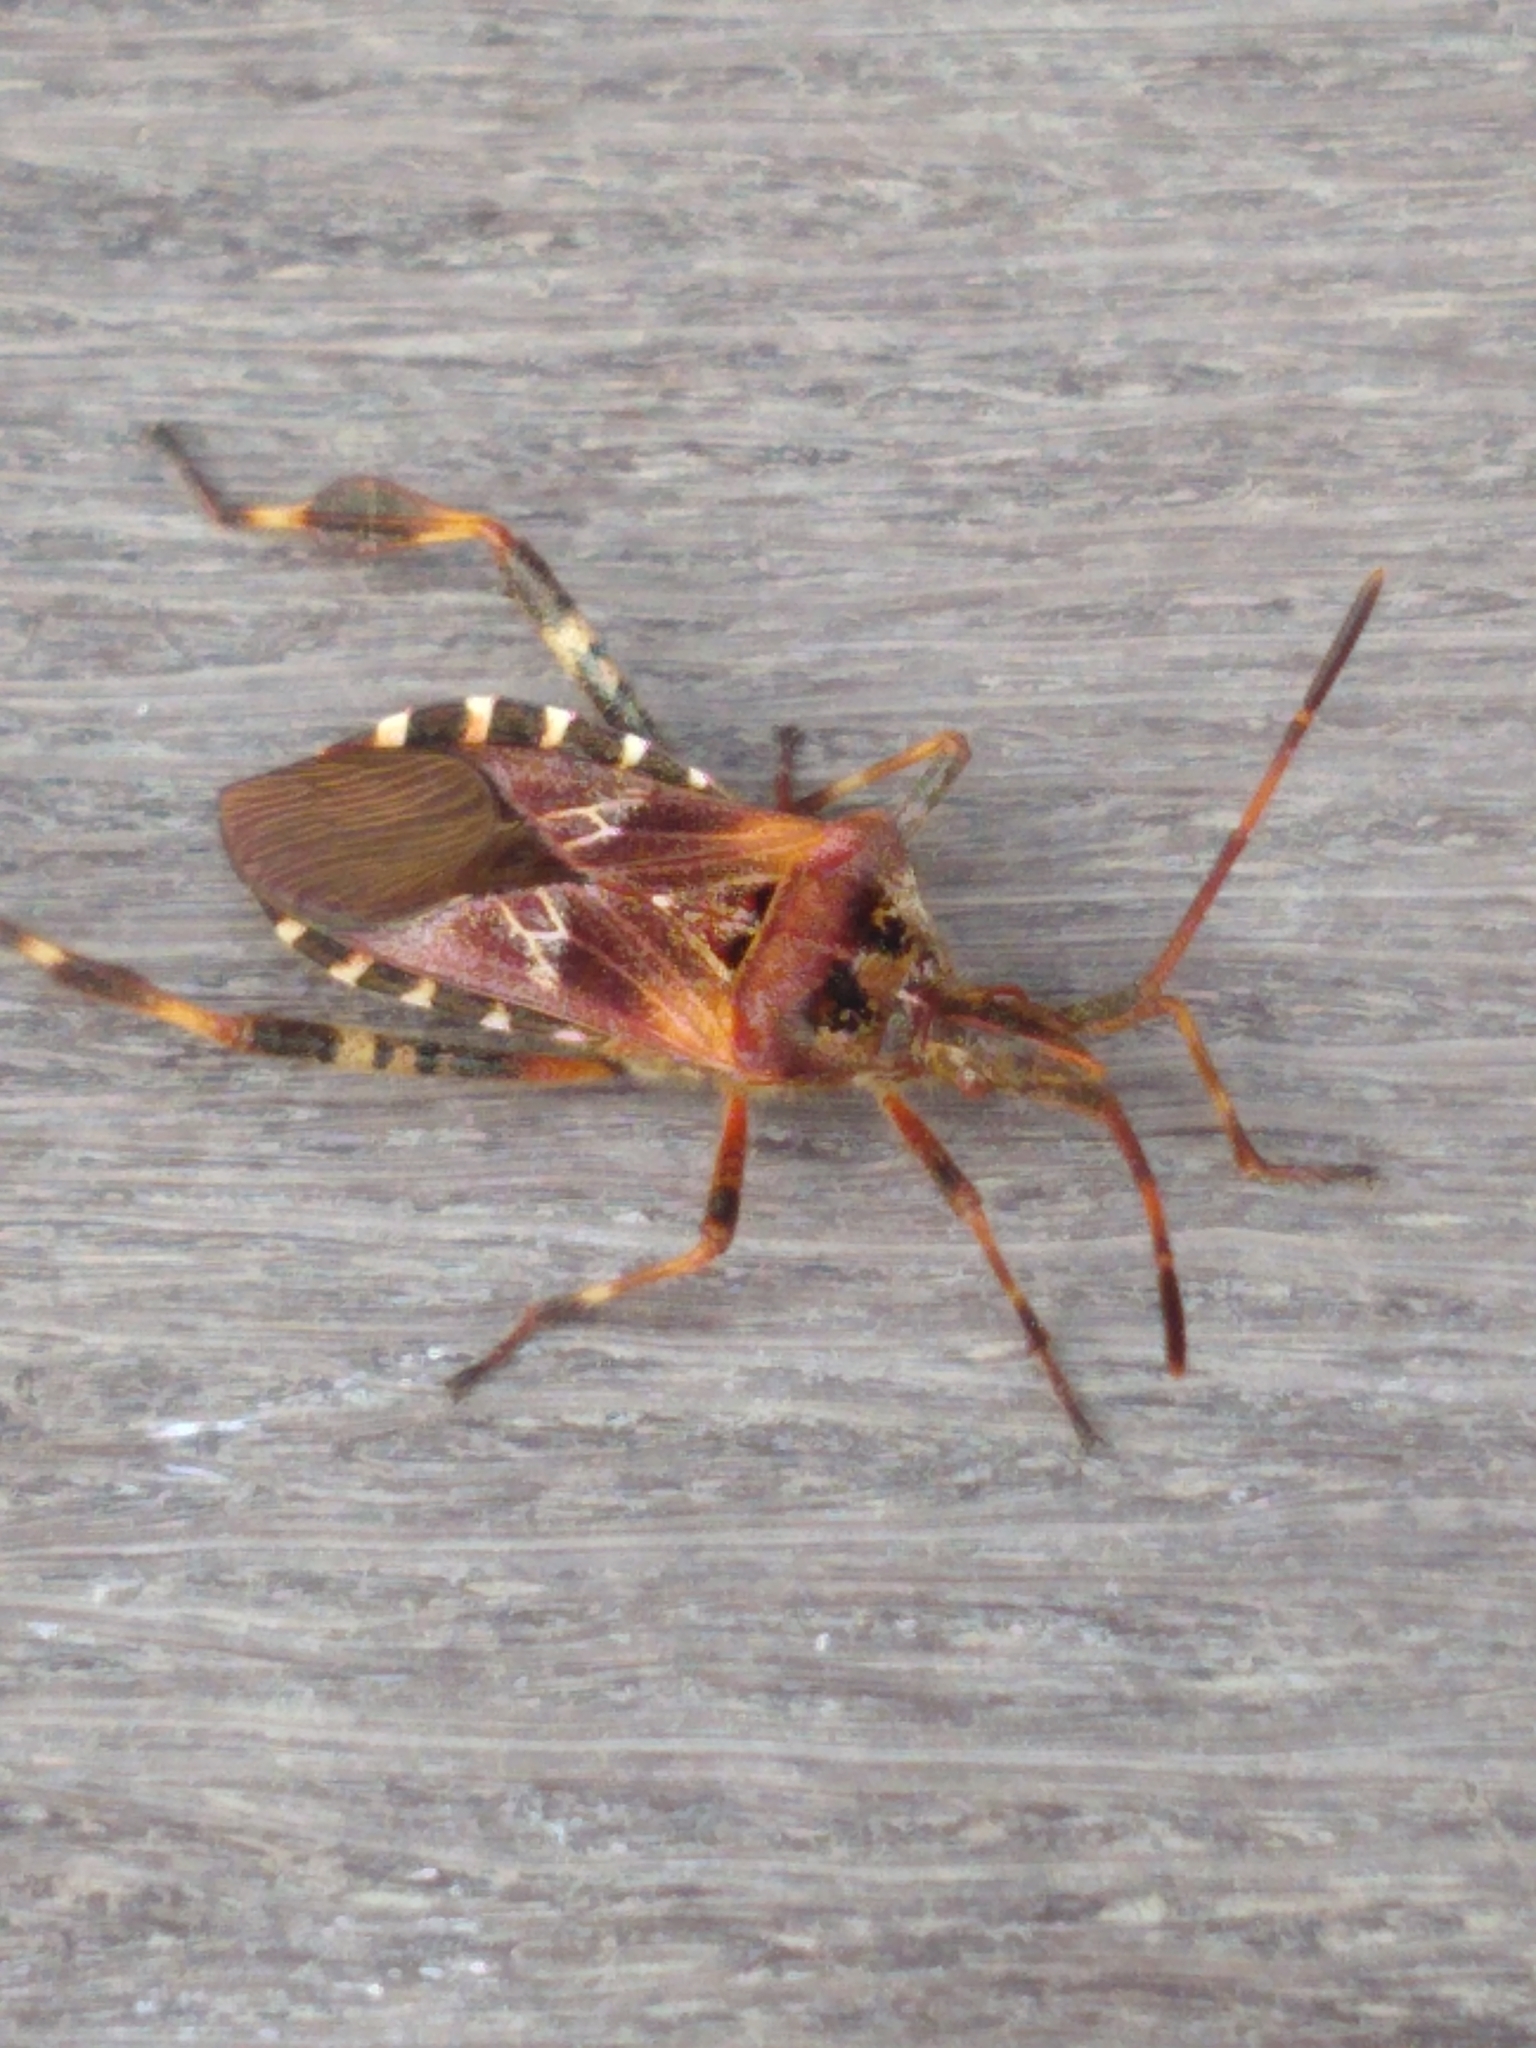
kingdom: Animalia
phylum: Arthropoda
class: Insecta
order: Hemiptera
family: Coreidae
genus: Leptoglossus
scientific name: Leptoglossus occidentalis
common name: Western conifer-seed bug
